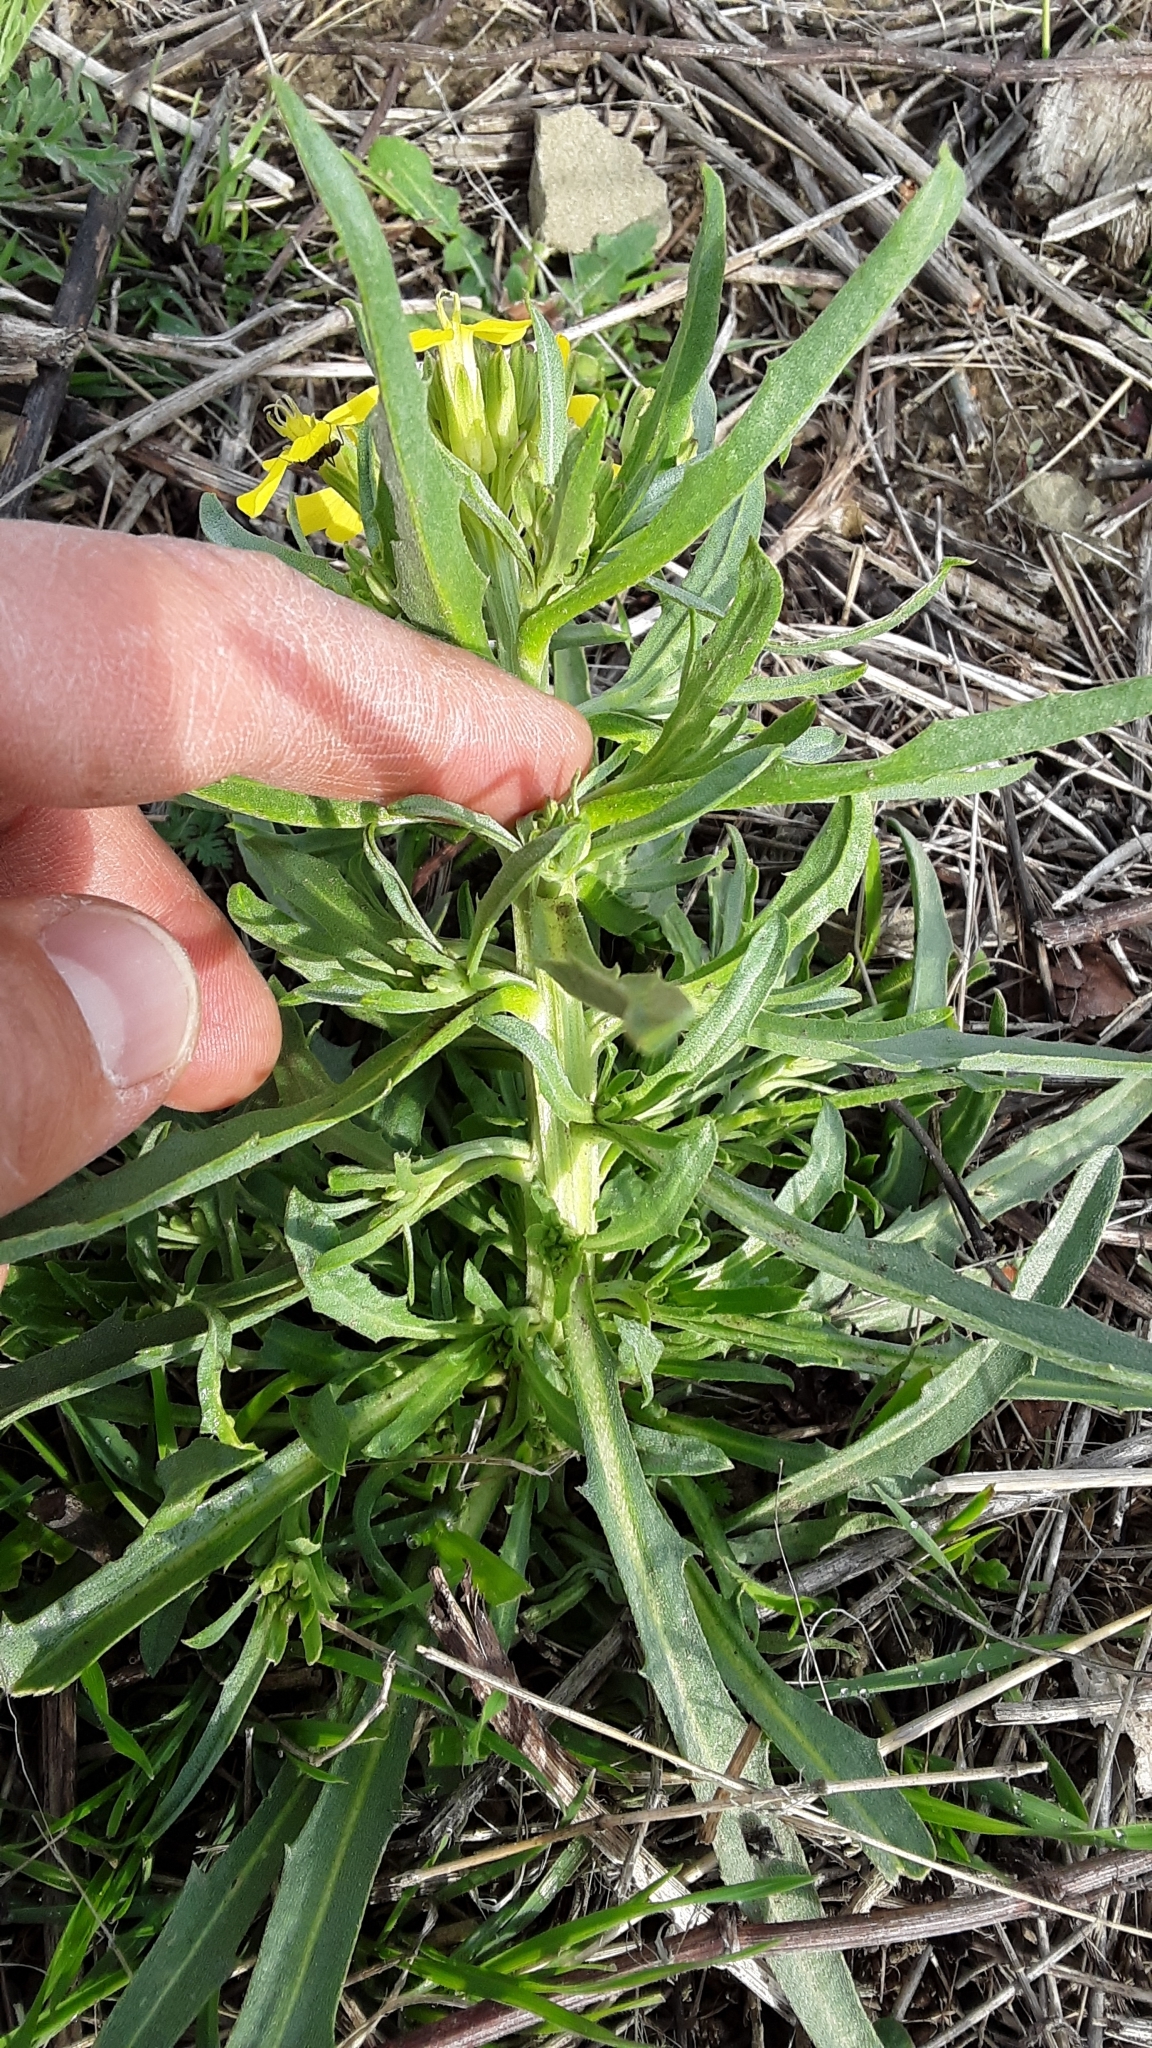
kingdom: Plantae
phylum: Tracheophyta
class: Magnoliopsida
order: Brassicales
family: Brassicaceae
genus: Erysimum
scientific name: Erysimum capitatum
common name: Western wallflower
